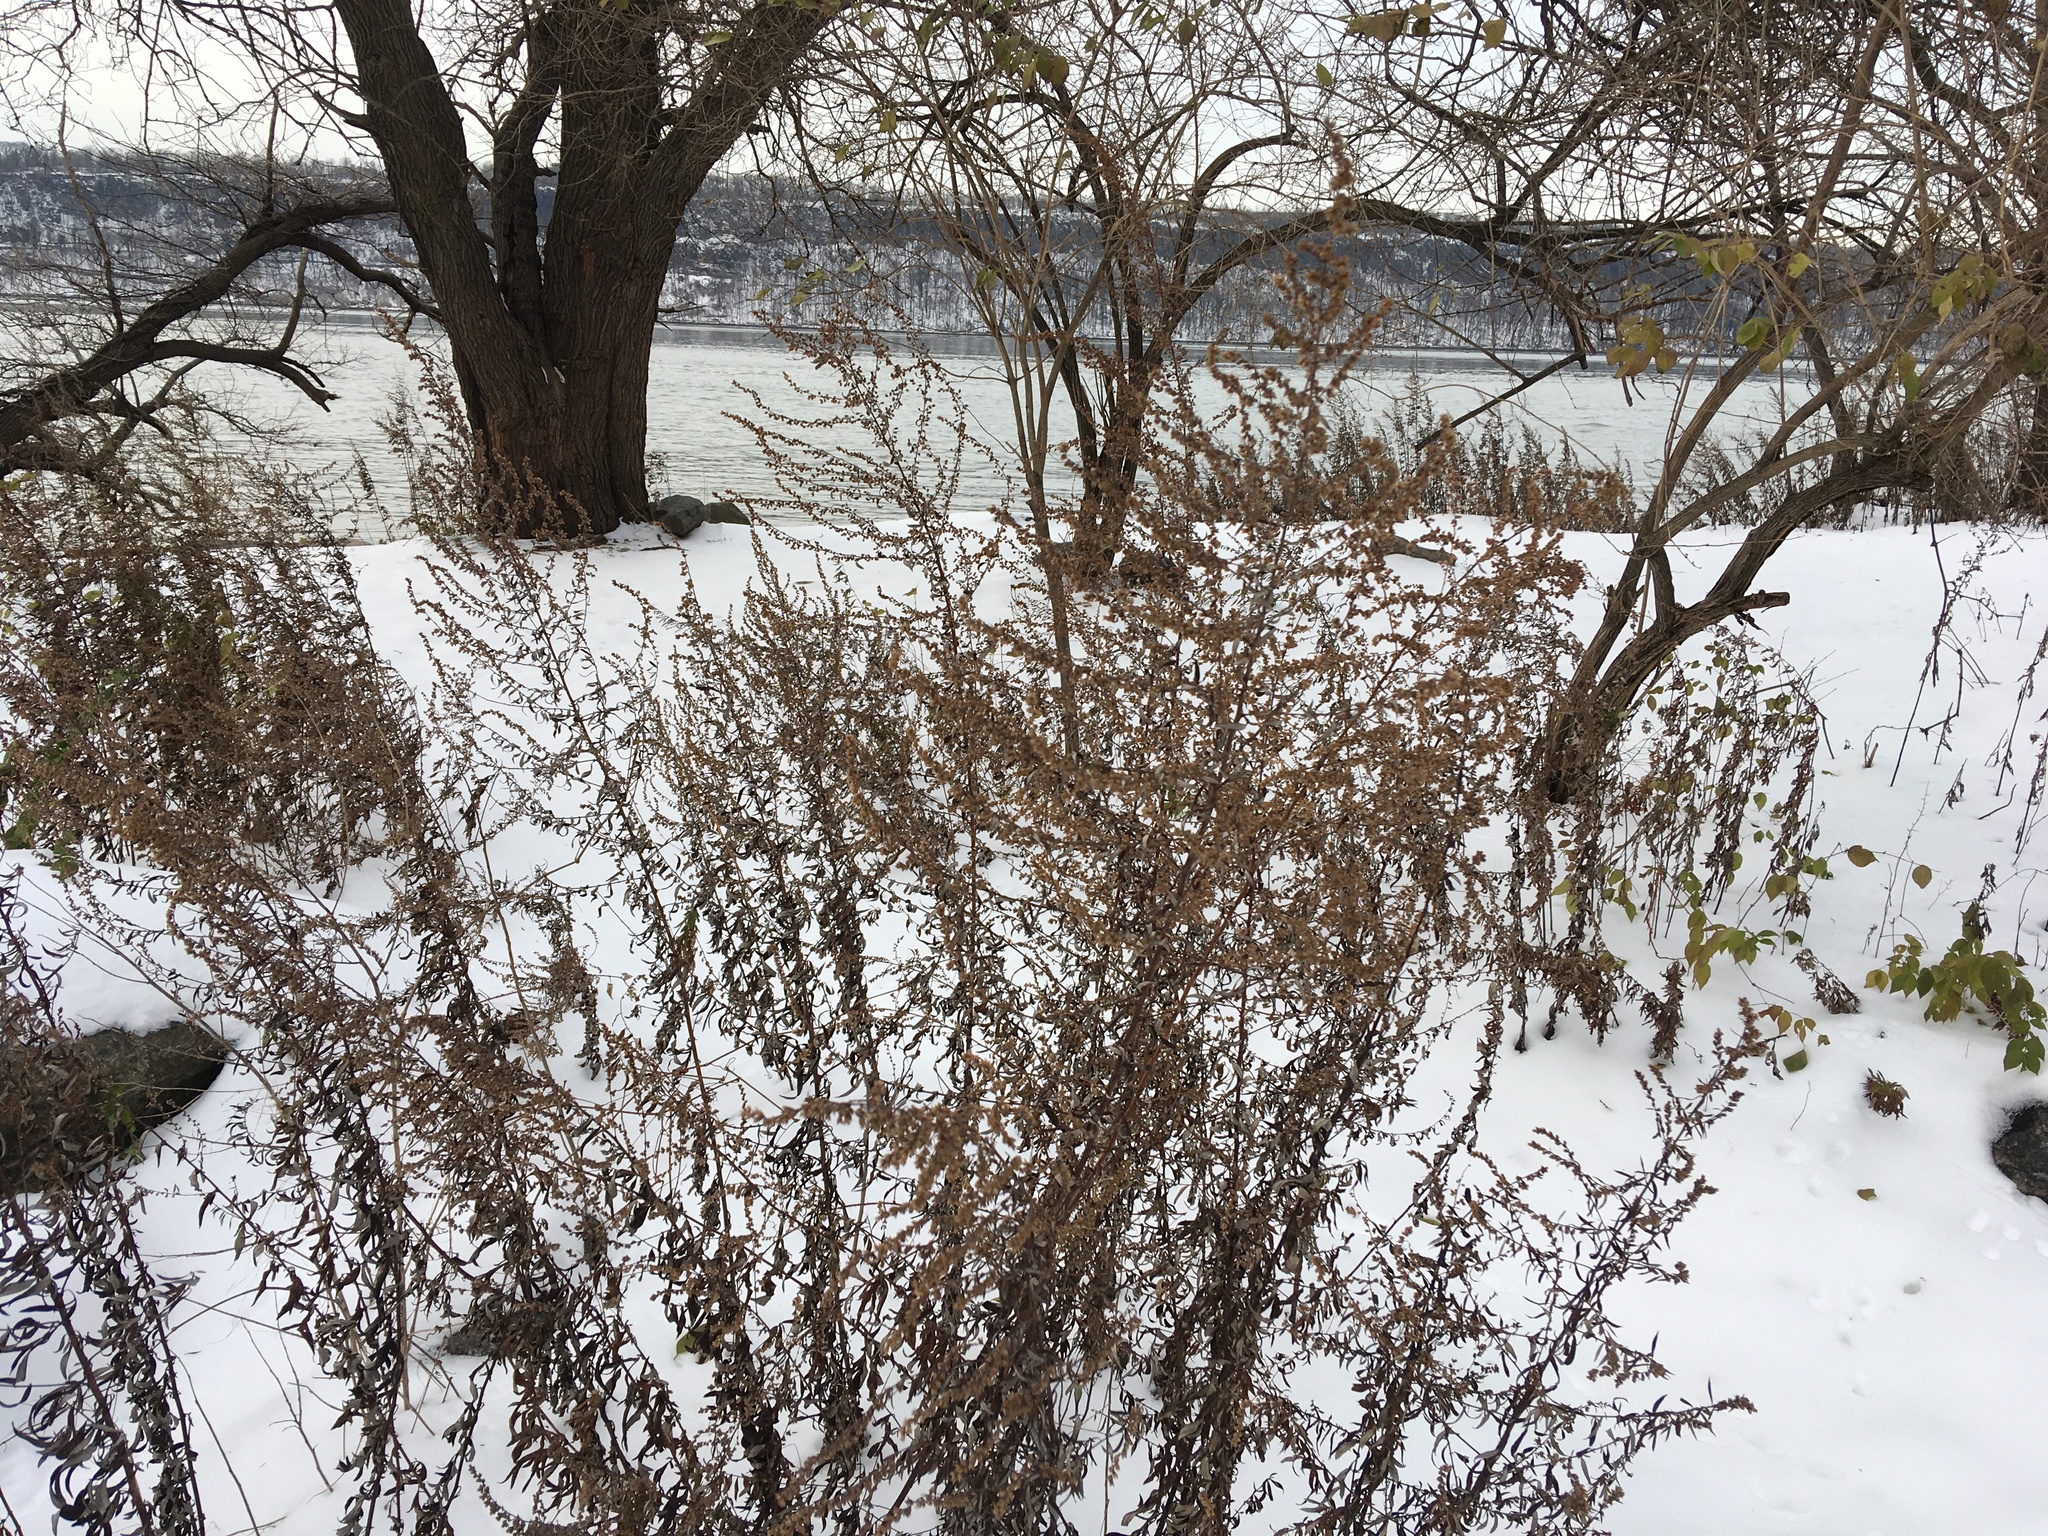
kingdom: Plantae
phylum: Tracheophyta
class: Magnoliopsida
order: Asterales
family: Asteraceae
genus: Artemisia
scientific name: Artemisia vulgaris
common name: Mugwort
